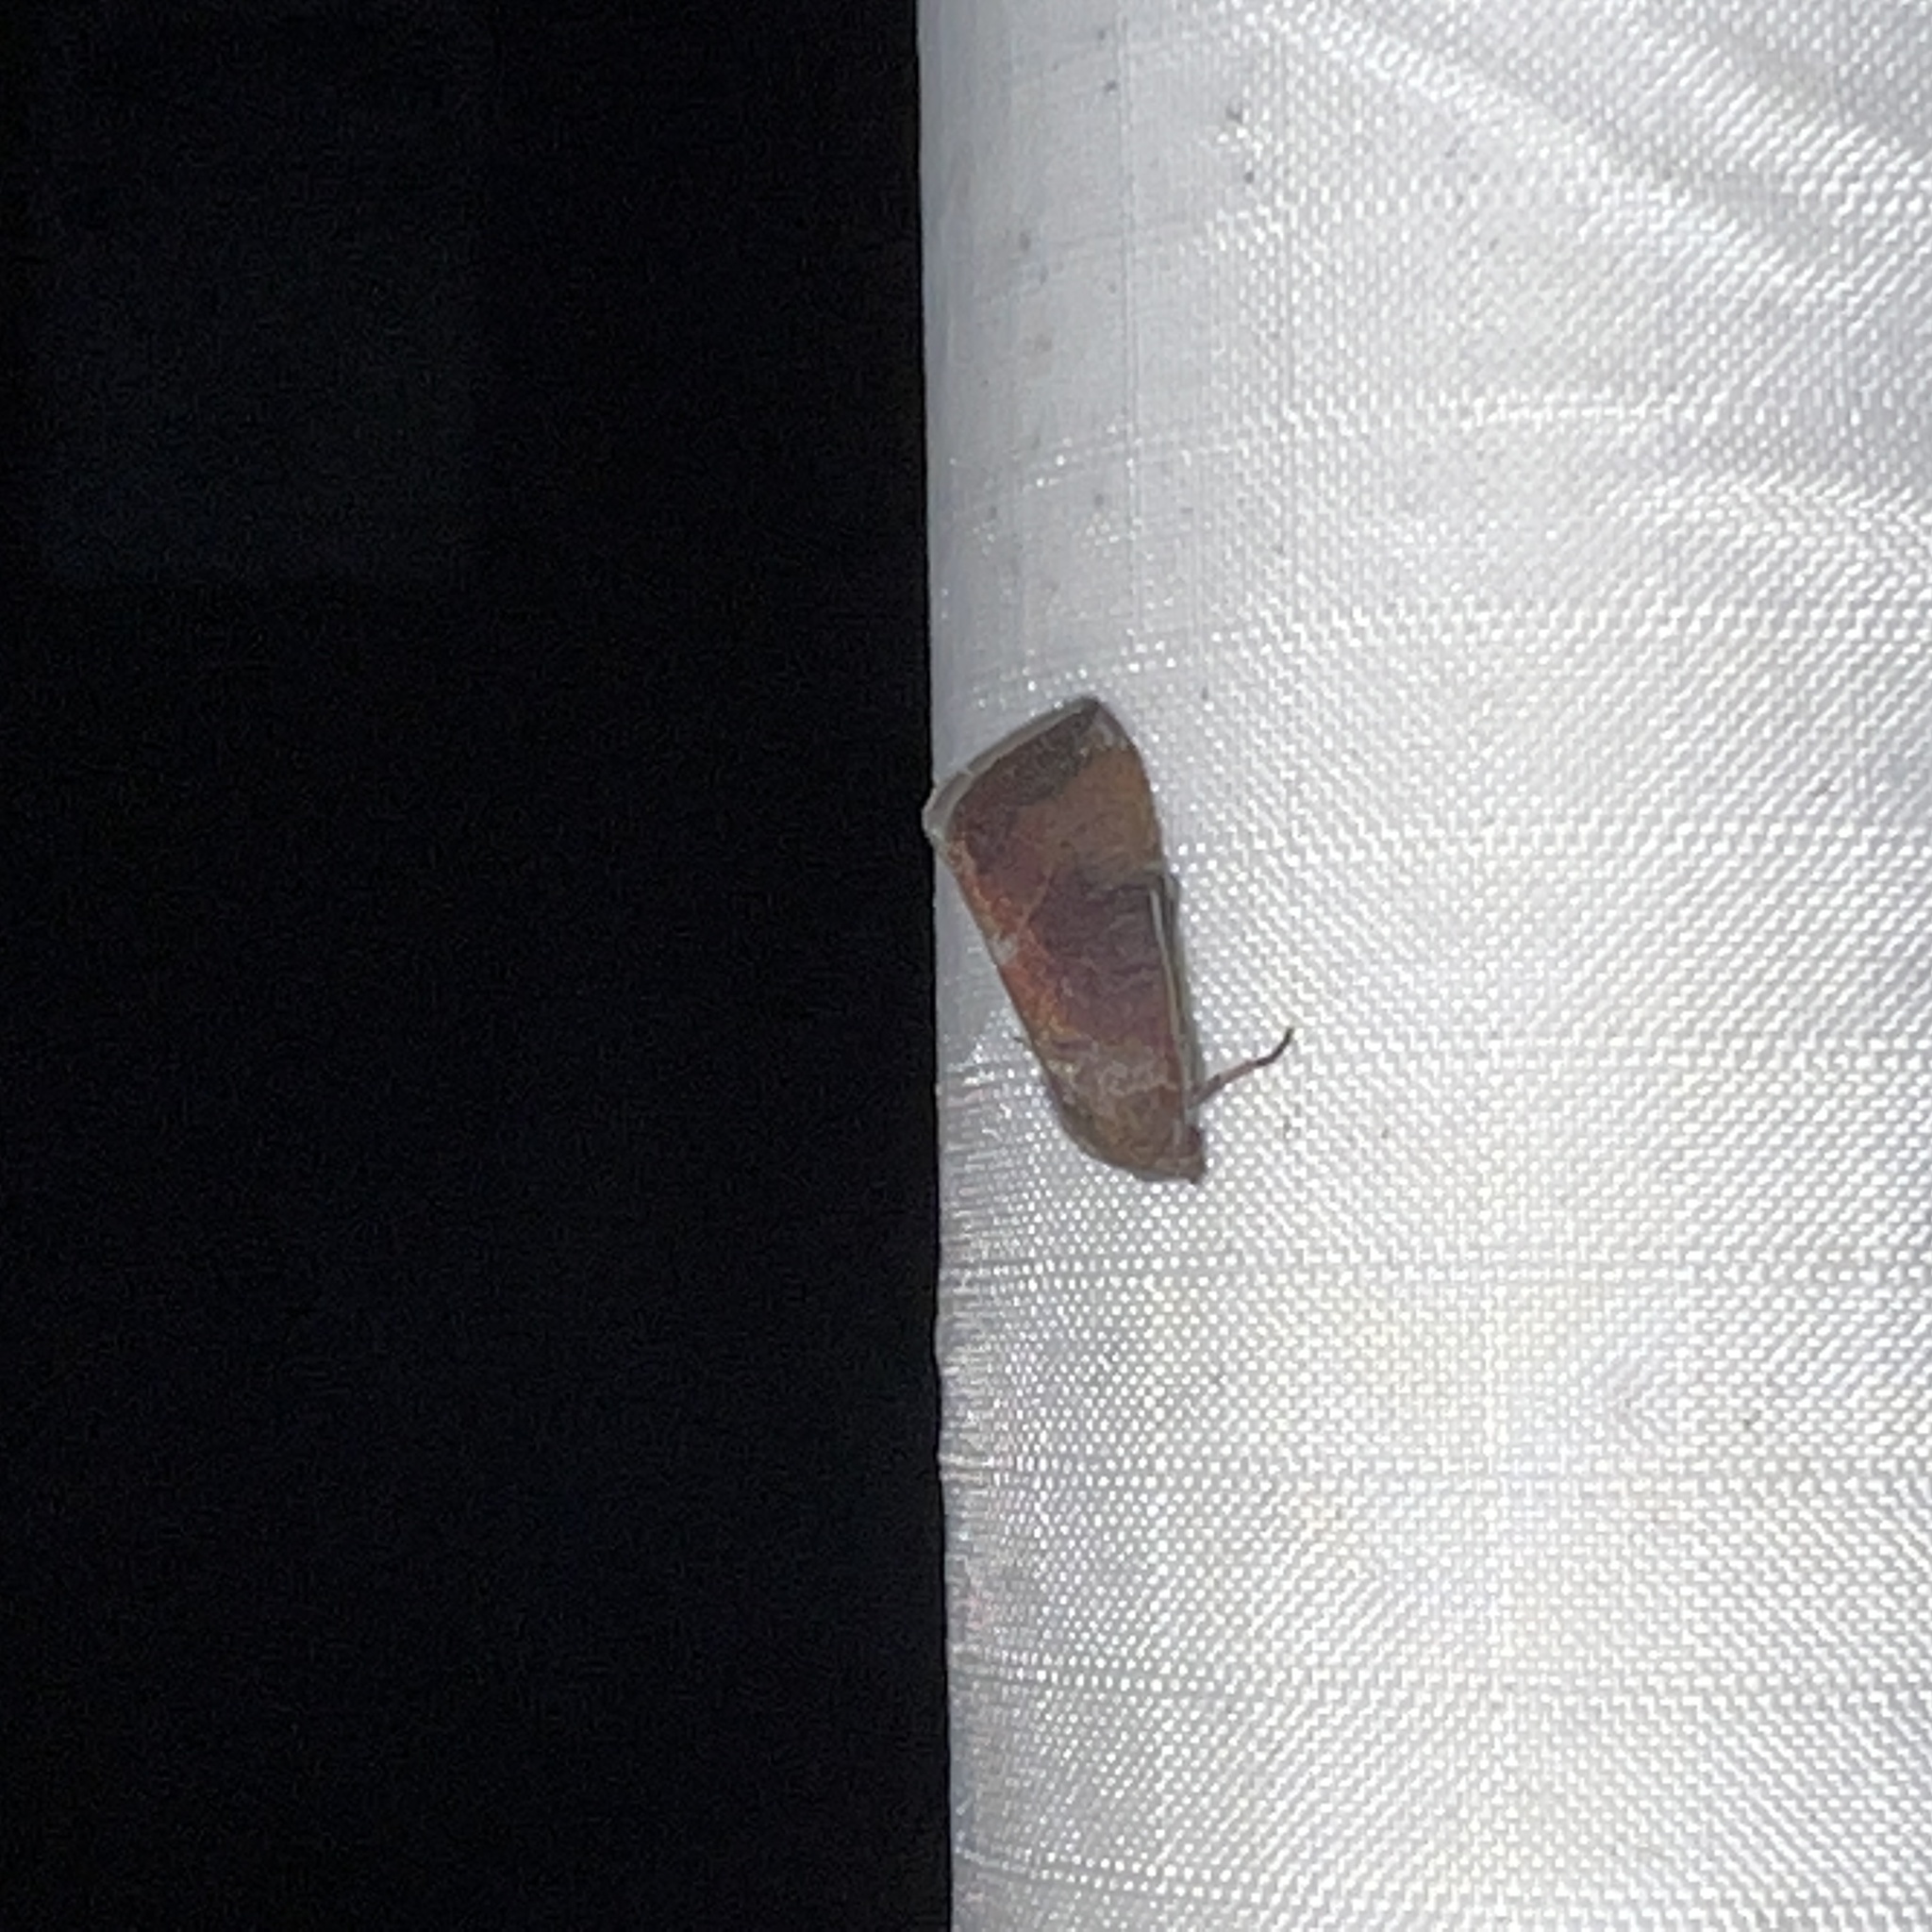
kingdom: Animalia
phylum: Arthropoda
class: Insecta
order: Lepidoptera
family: Noctuidae
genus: Galgula
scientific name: Galgula partita
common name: Wedgeling
